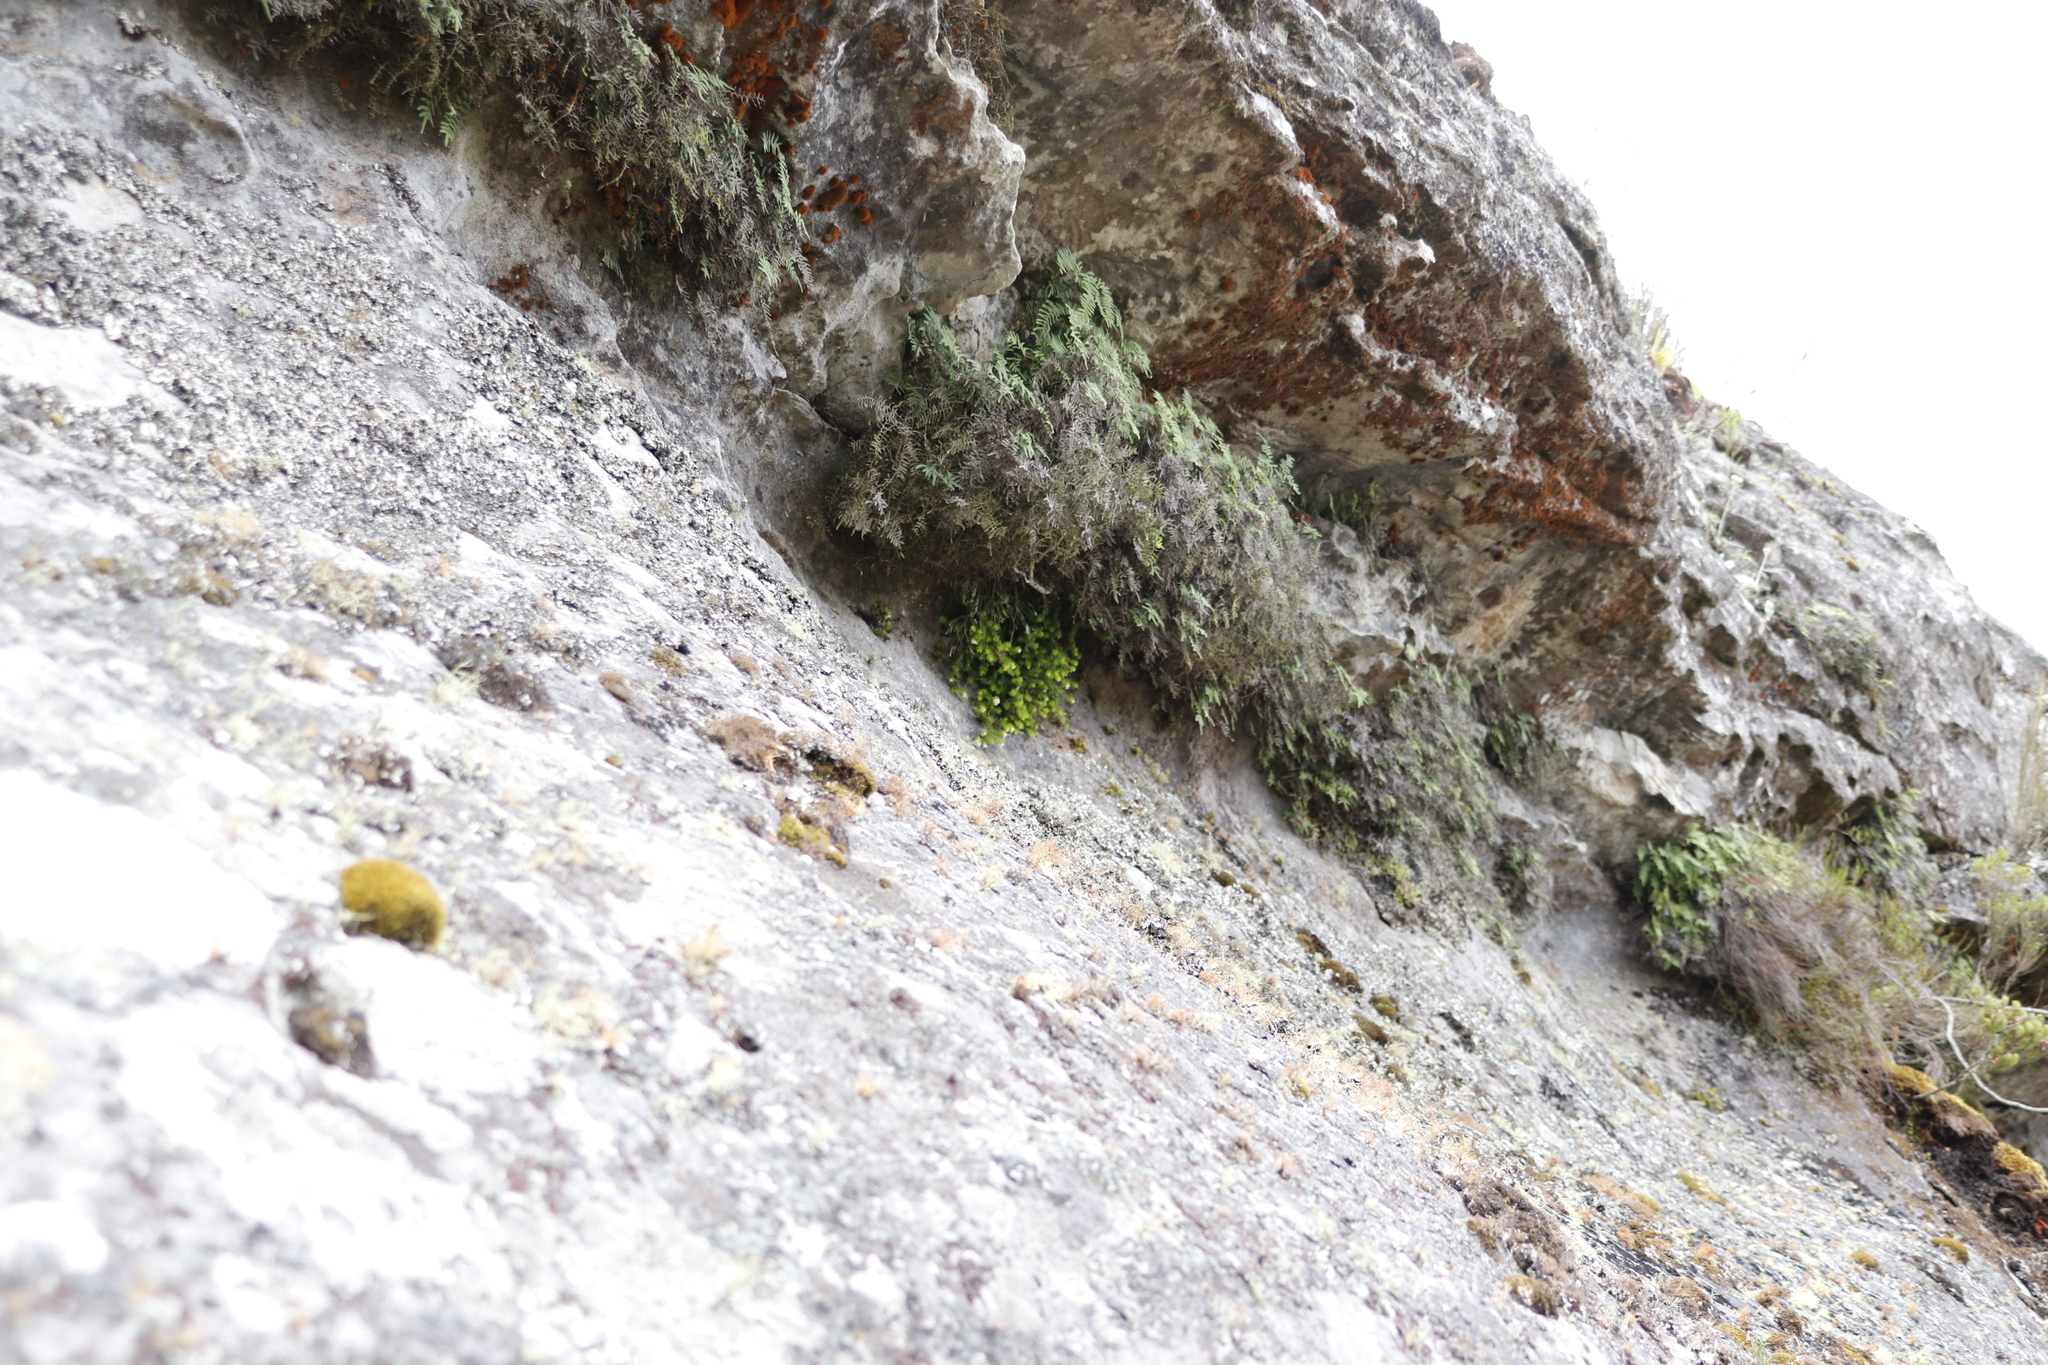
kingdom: Plantae
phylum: Tracheophyta
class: Polypodiopsida
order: Gleicheniales
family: Gleicheniaceae
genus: Gleichenia
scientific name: Gleichenia polypodioides
